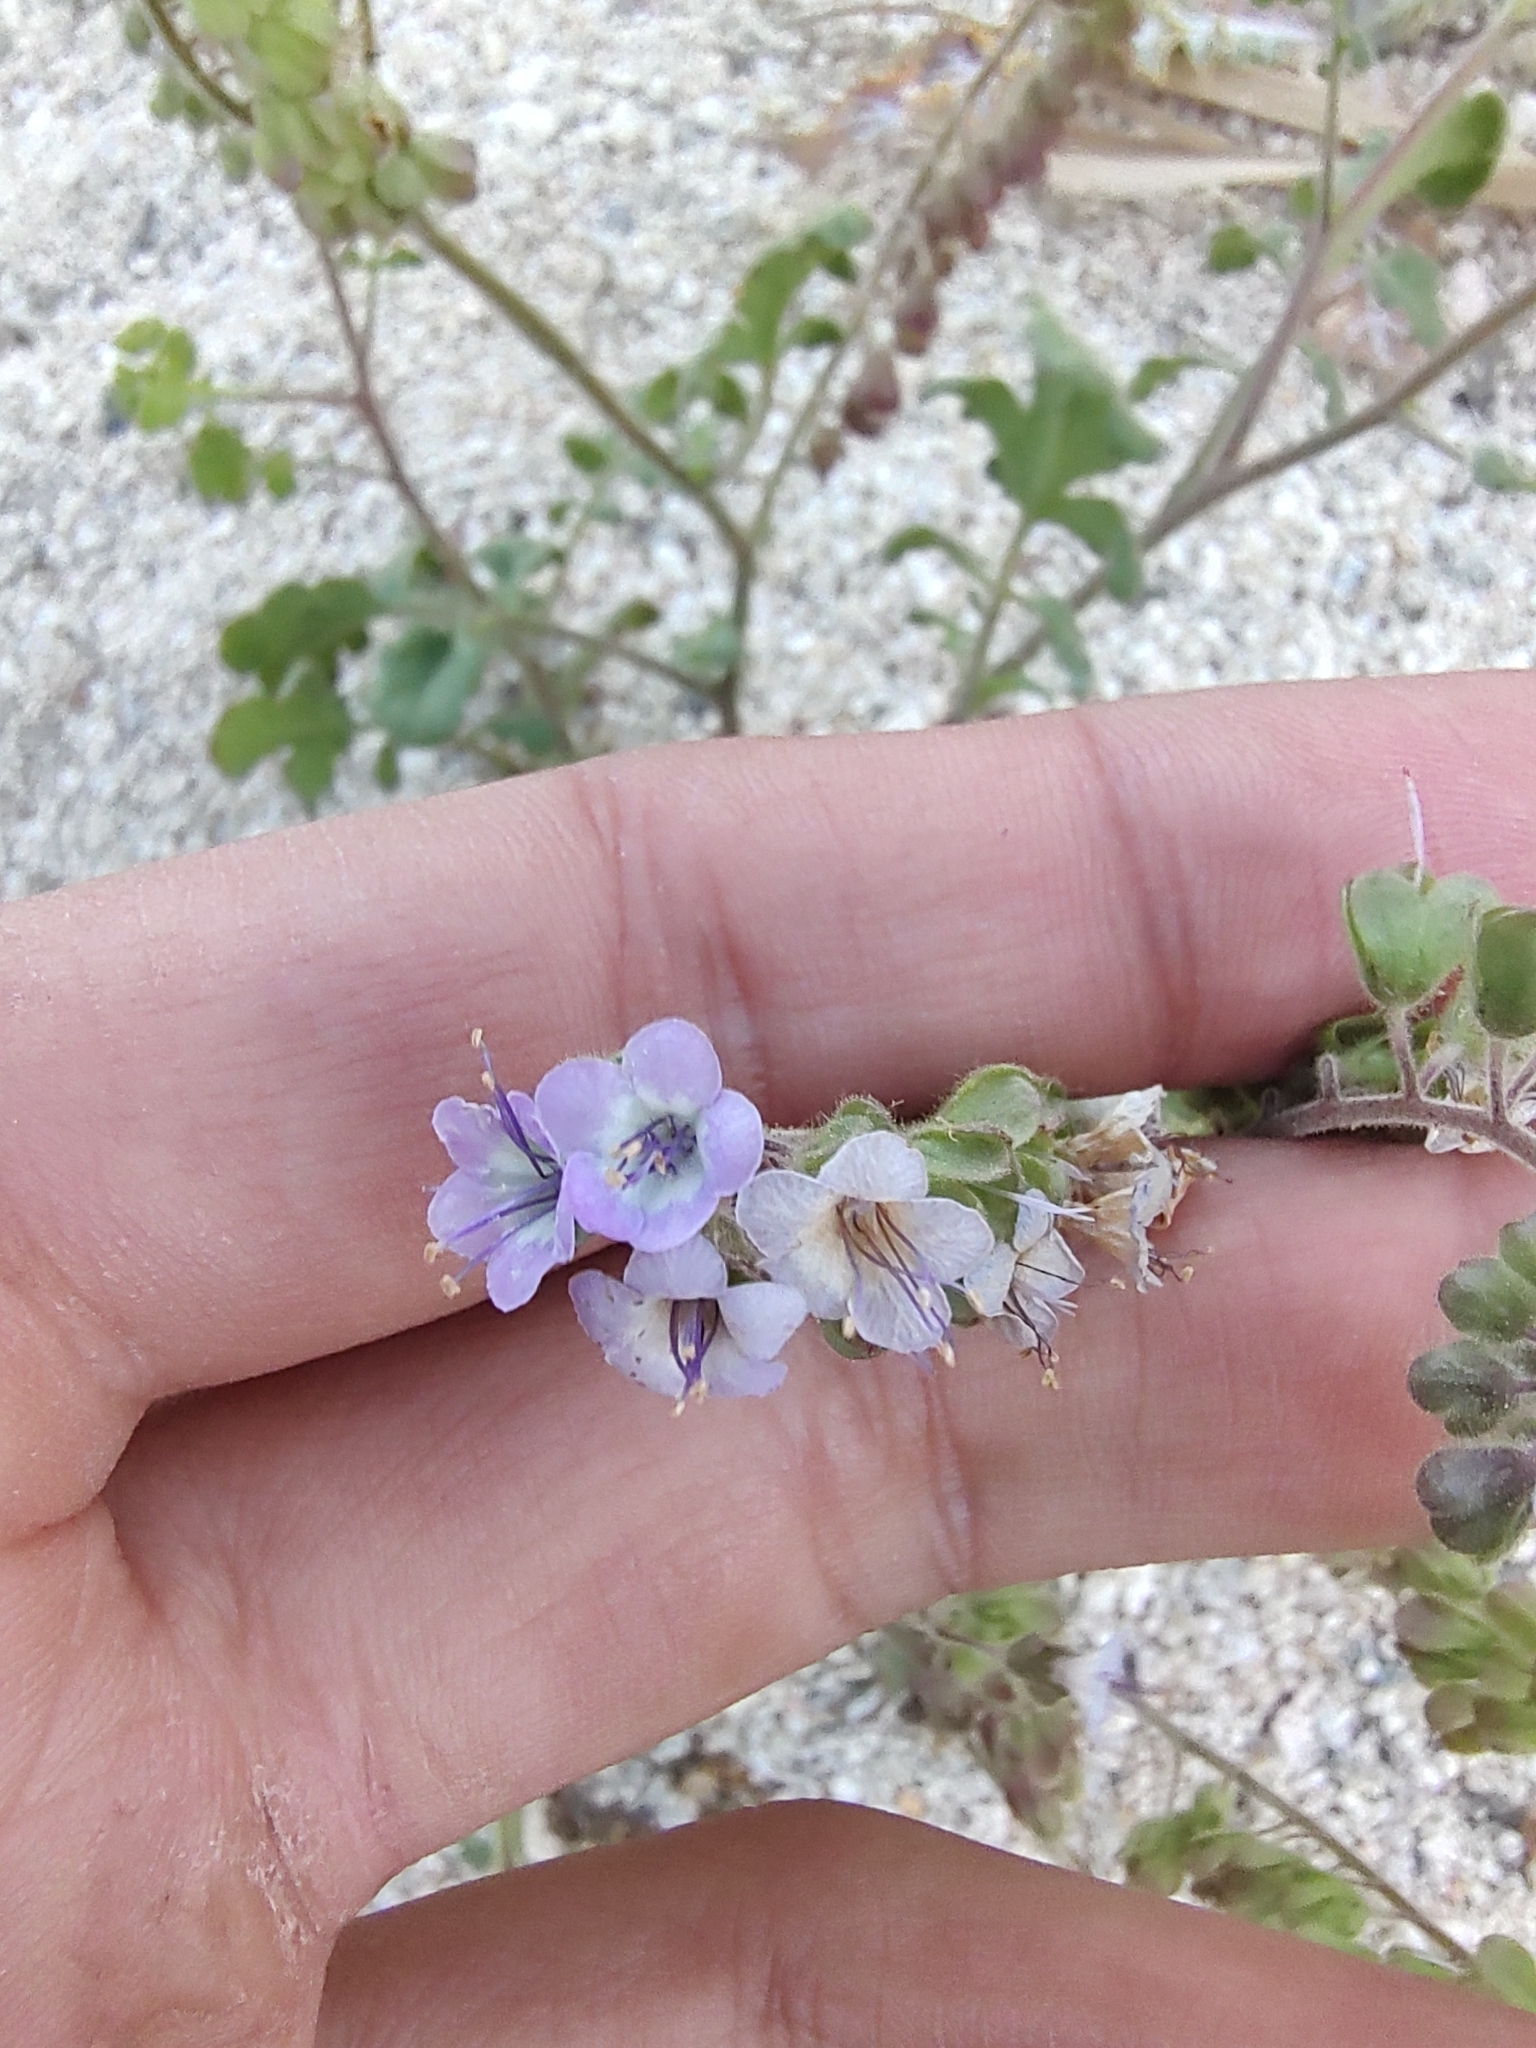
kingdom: Plantae
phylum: Tracheophyta
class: Magnoliopsida
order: Boraginales
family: Hydrophyllaceae
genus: Phacelia
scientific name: Phacelia scariosa
